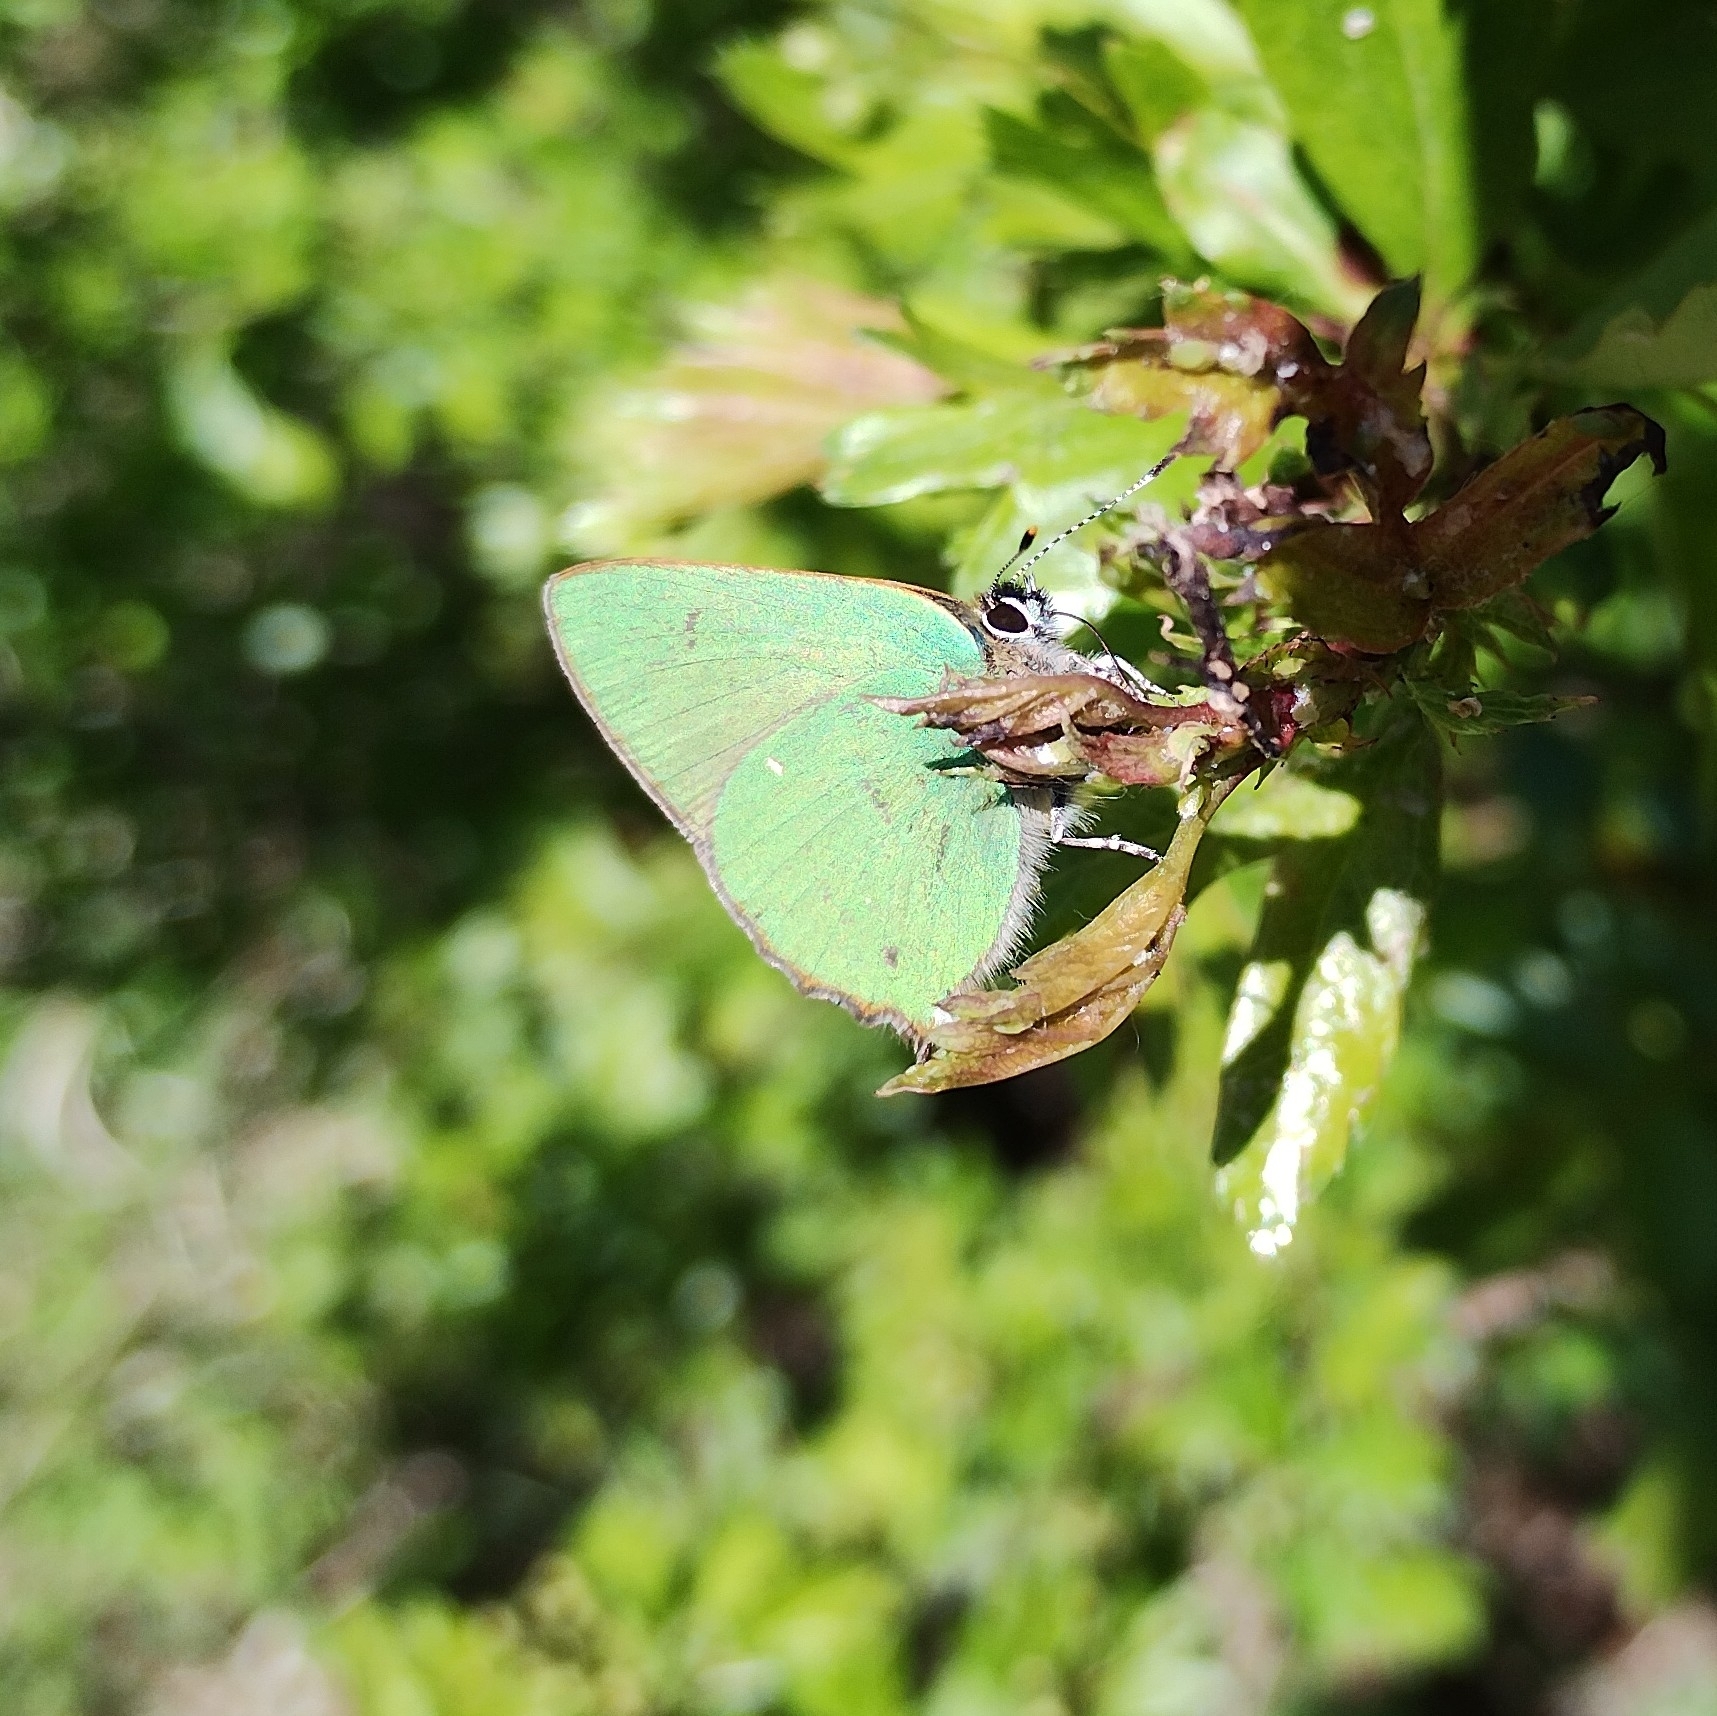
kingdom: Animalia
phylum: Arthropoda
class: Insecta
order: Lepidoptera
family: Lycaenidae
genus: Callophrys
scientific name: Callophrys rubi
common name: Green hairstreak
